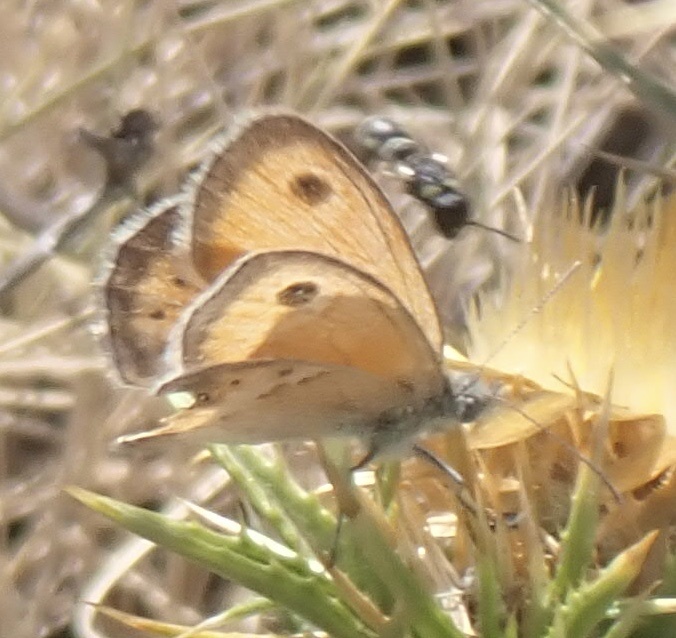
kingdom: Animalia
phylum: Arthropoda
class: Insecta
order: Lepidoptera
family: Nymphalidae
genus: Coenonympha
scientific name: Coenonympha pamphilus
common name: Small heath
